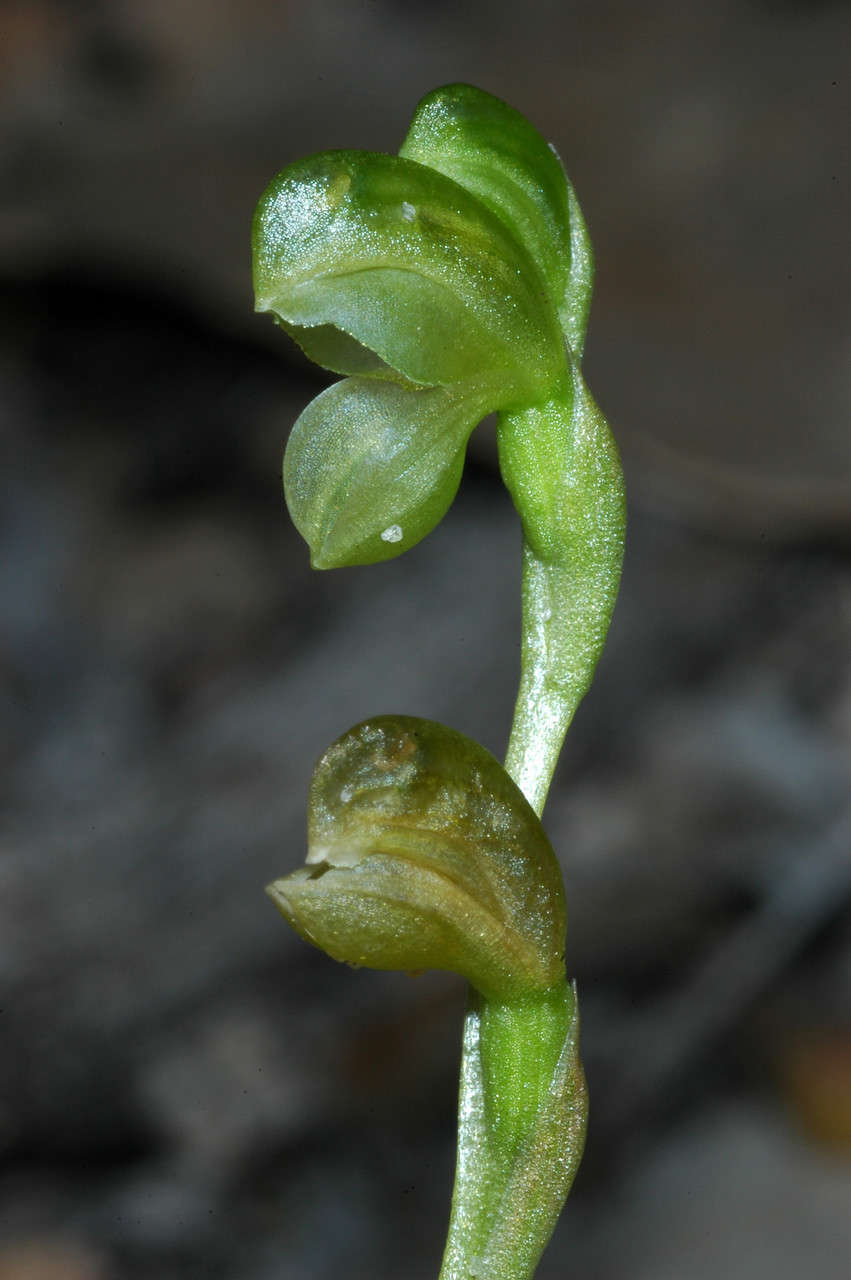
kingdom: Plantae
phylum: Tracheophyta
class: Liliopsida
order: Asparagales
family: Orchidaceae
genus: Pterostylis
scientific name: Pterostylis mutica
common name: Midget greenhood
